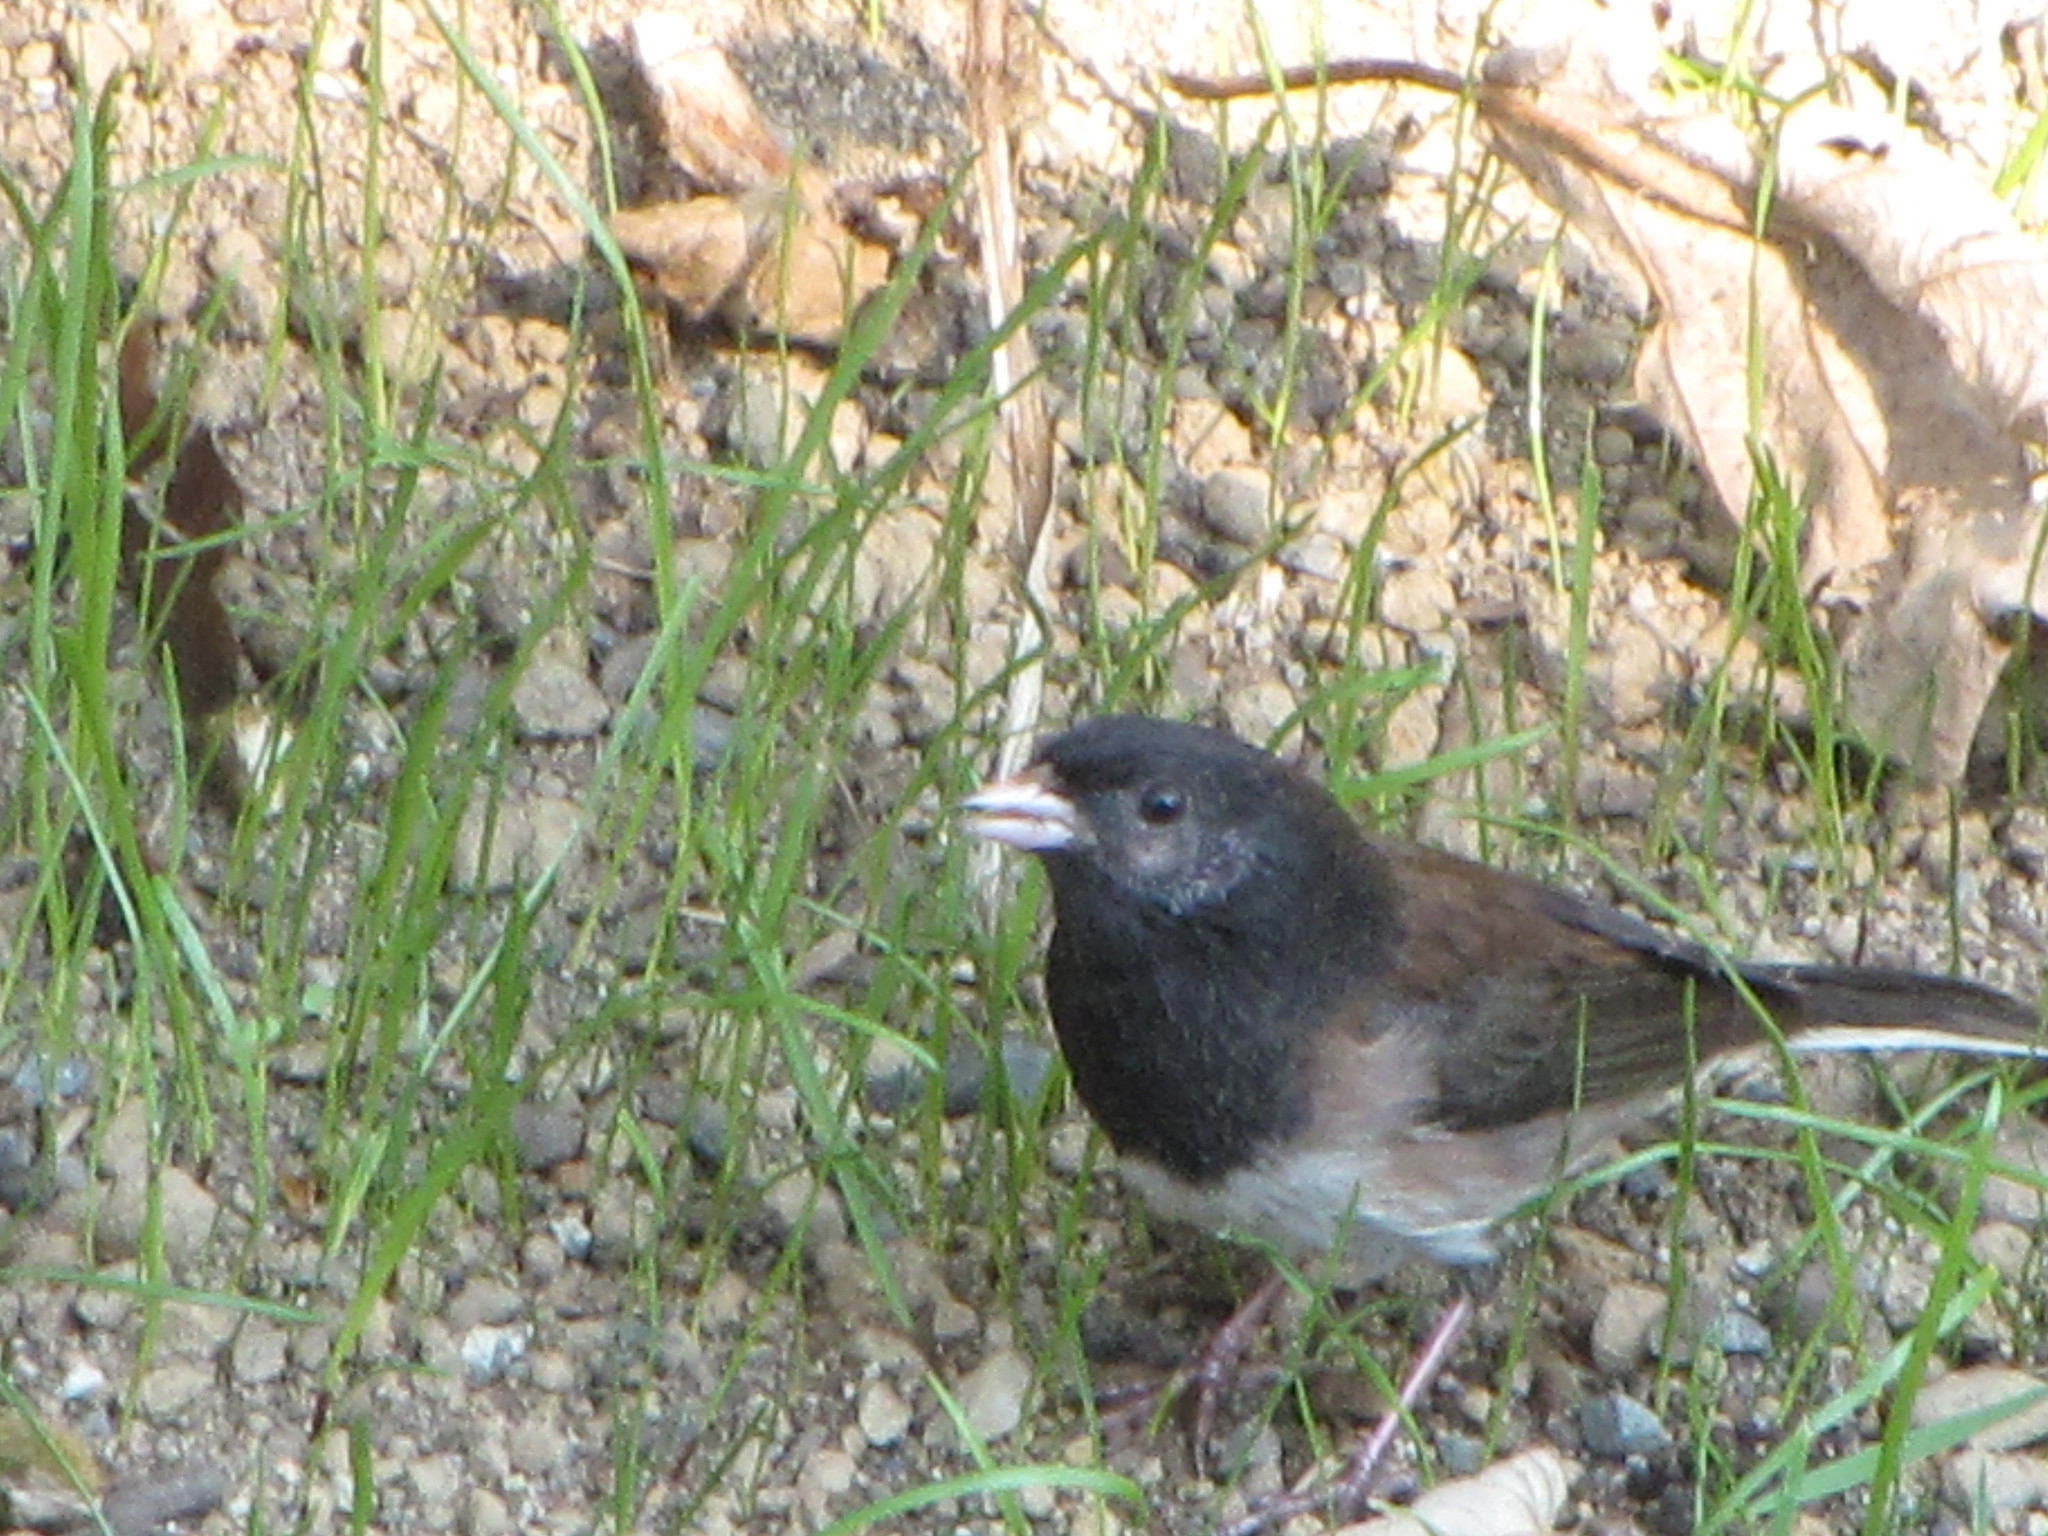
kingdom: Animalia
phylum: Chordata
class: Aves
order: Passeriformes
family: Passerellidae
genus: Junco
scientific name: Junco hyemalis
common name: Dark-eyed junco
